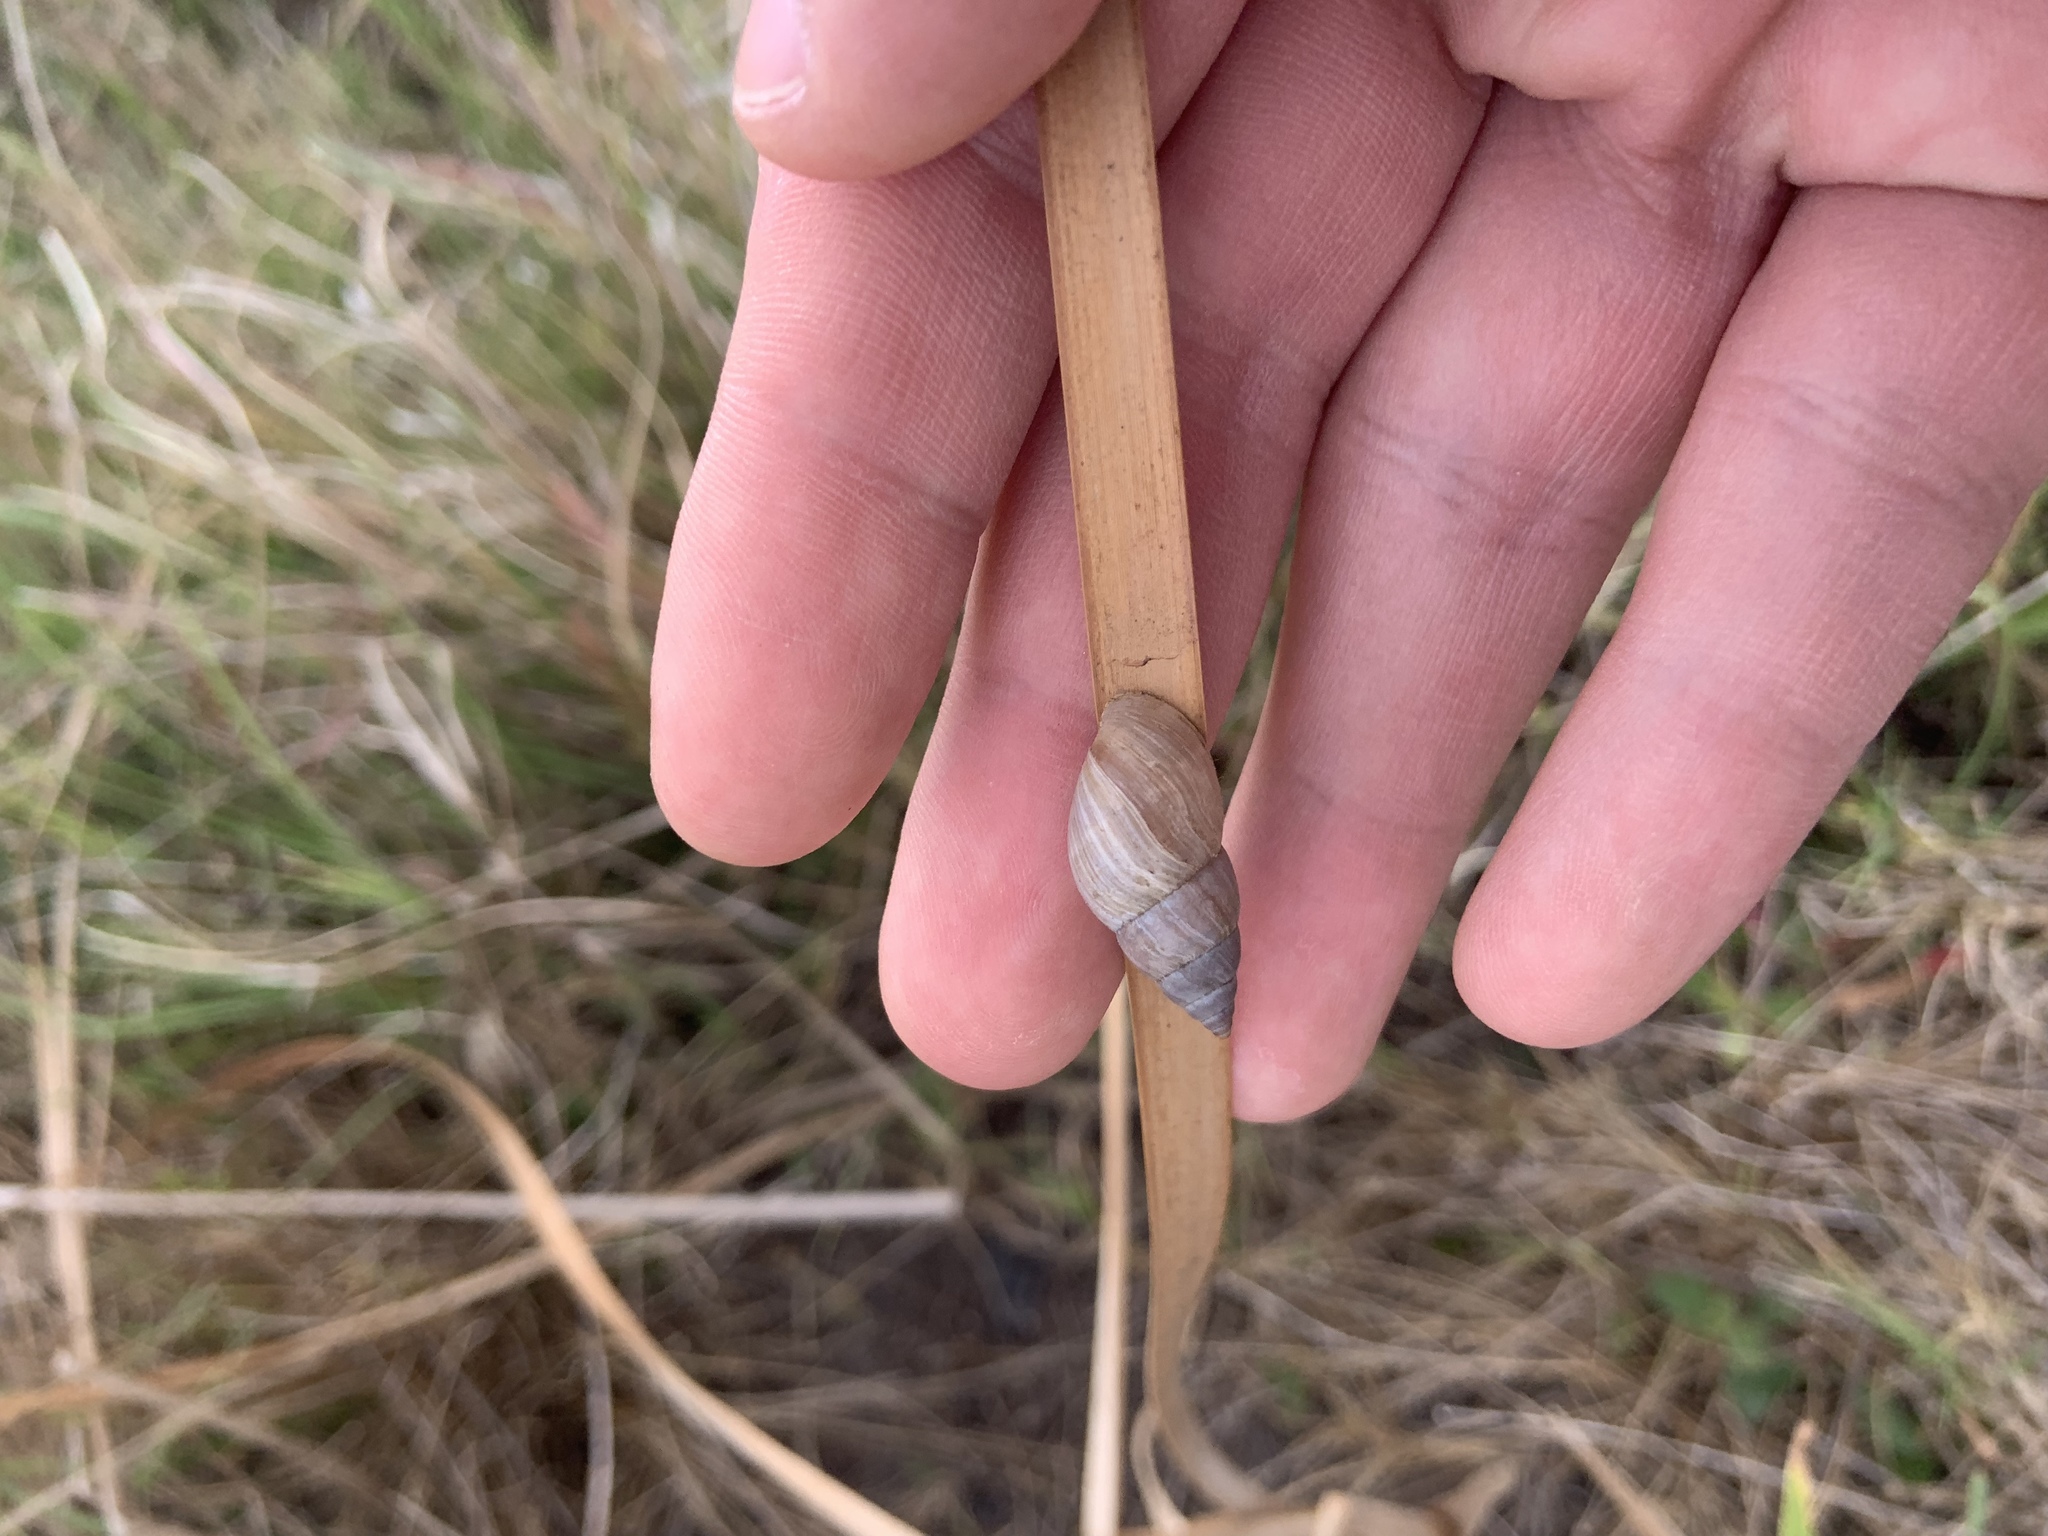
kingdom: Animalia
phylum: Mollusca
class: Gastropoda
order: Stylommatophora
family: Bulimulidae
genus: Bulimulus
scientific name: Bulimulus bonariensis
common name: Snail
